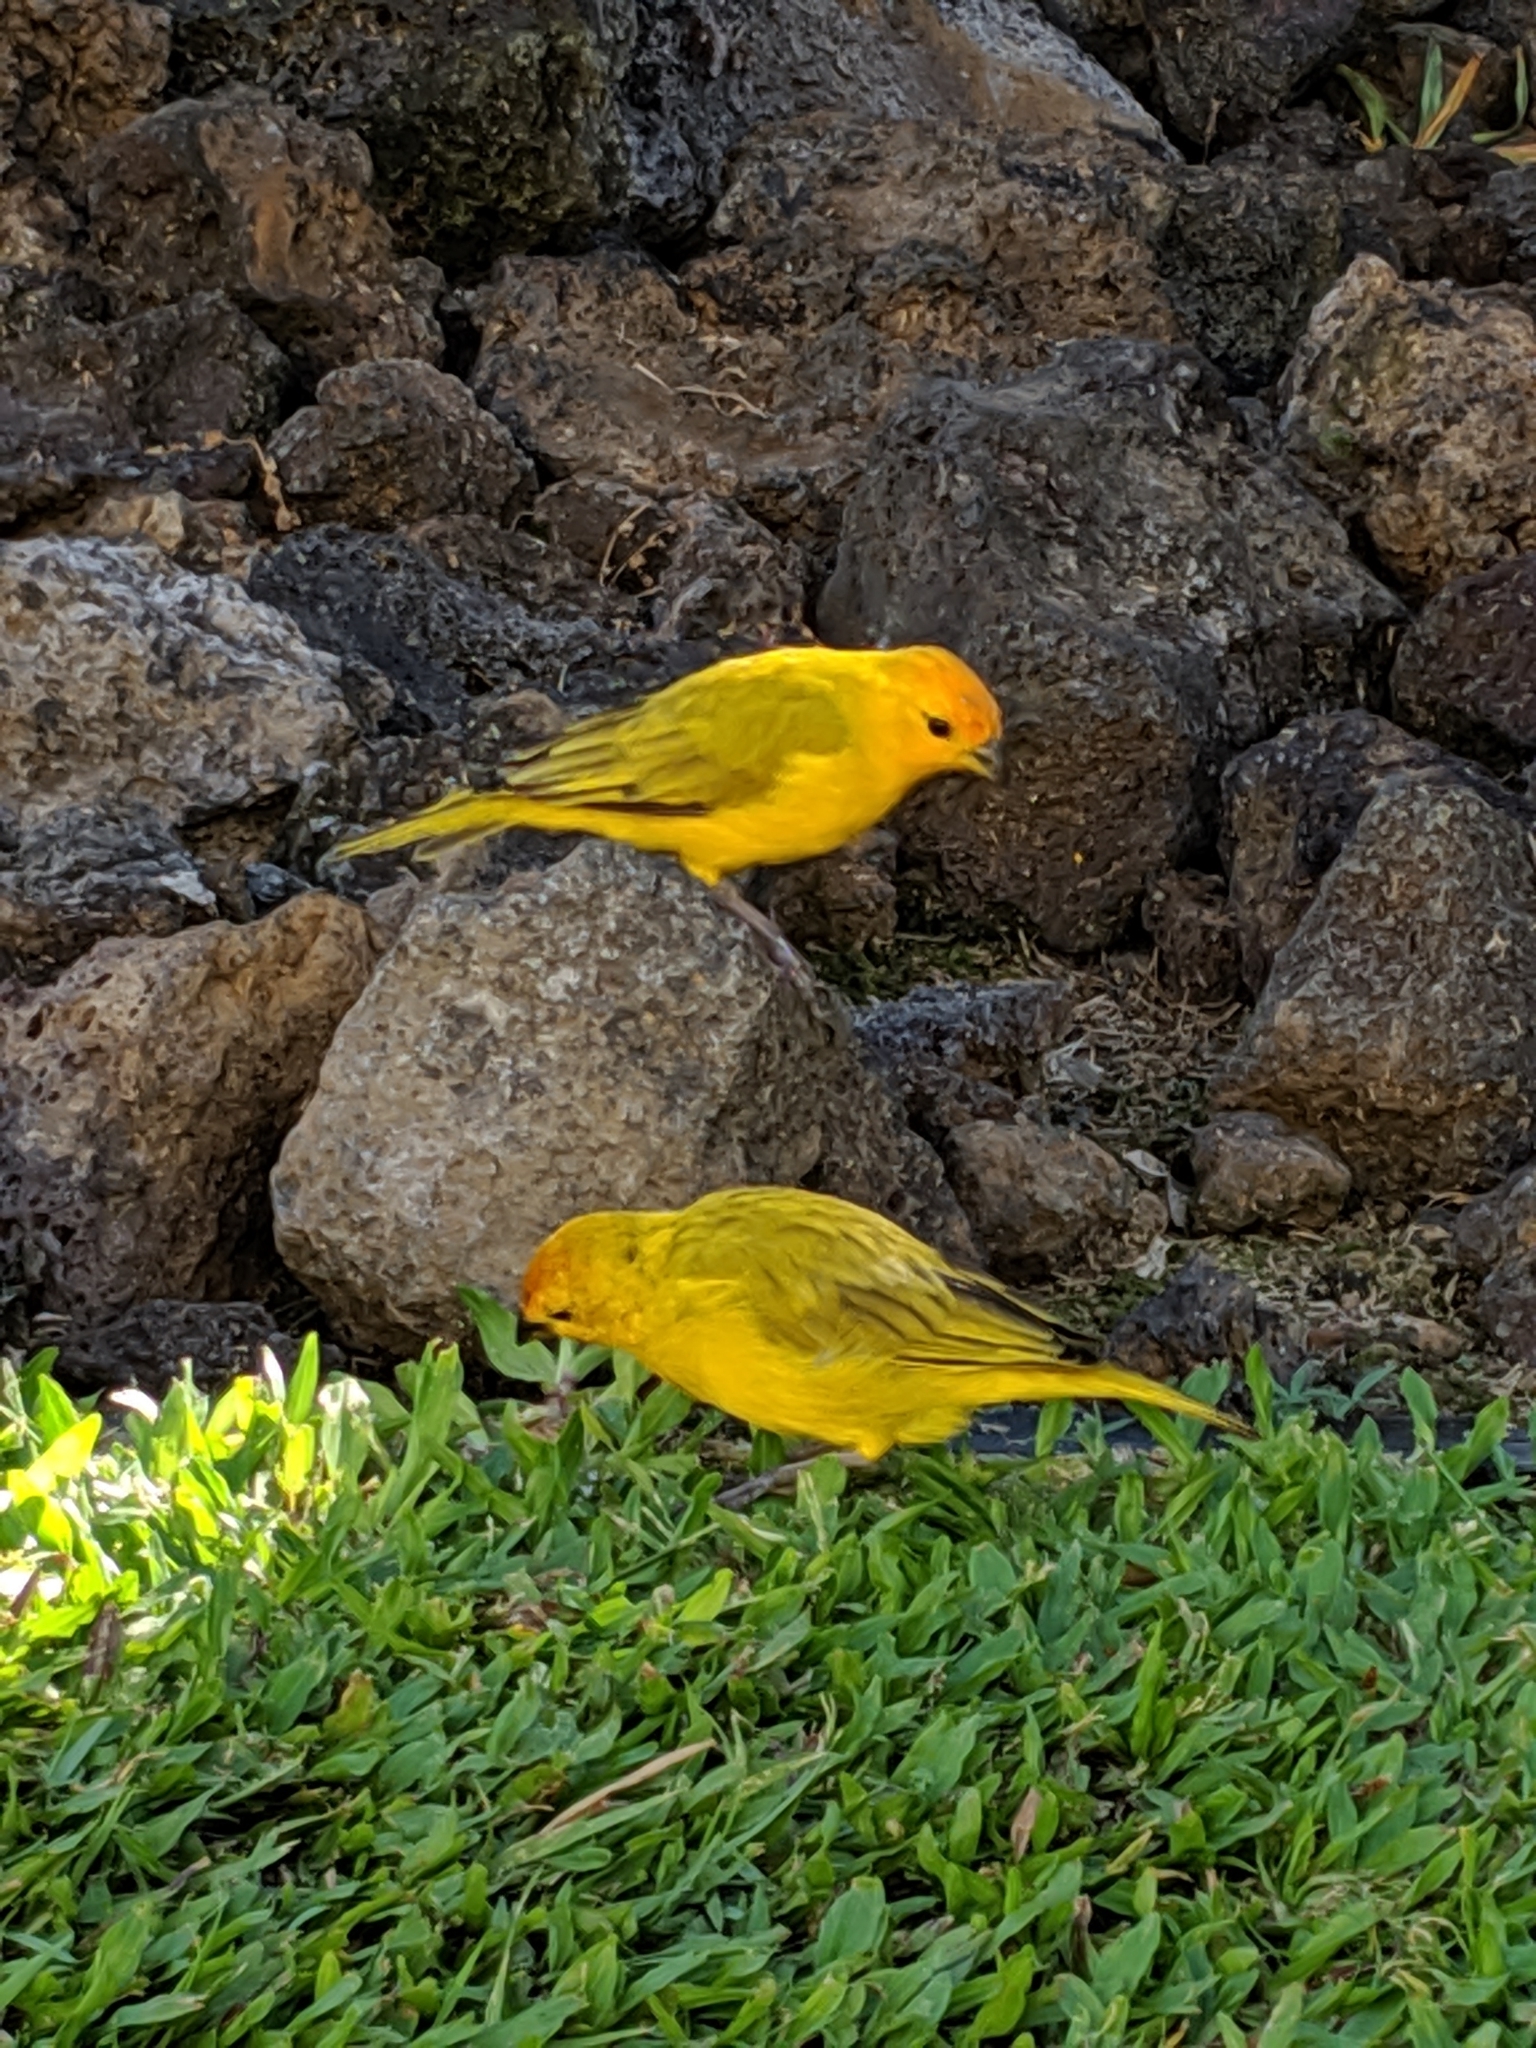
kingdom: Animalia
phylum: Chordata
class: Aves
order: Passeriformes
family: Thraupidae
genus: Sicalis
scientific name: Sicalis flaveola
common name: Saffron finch
